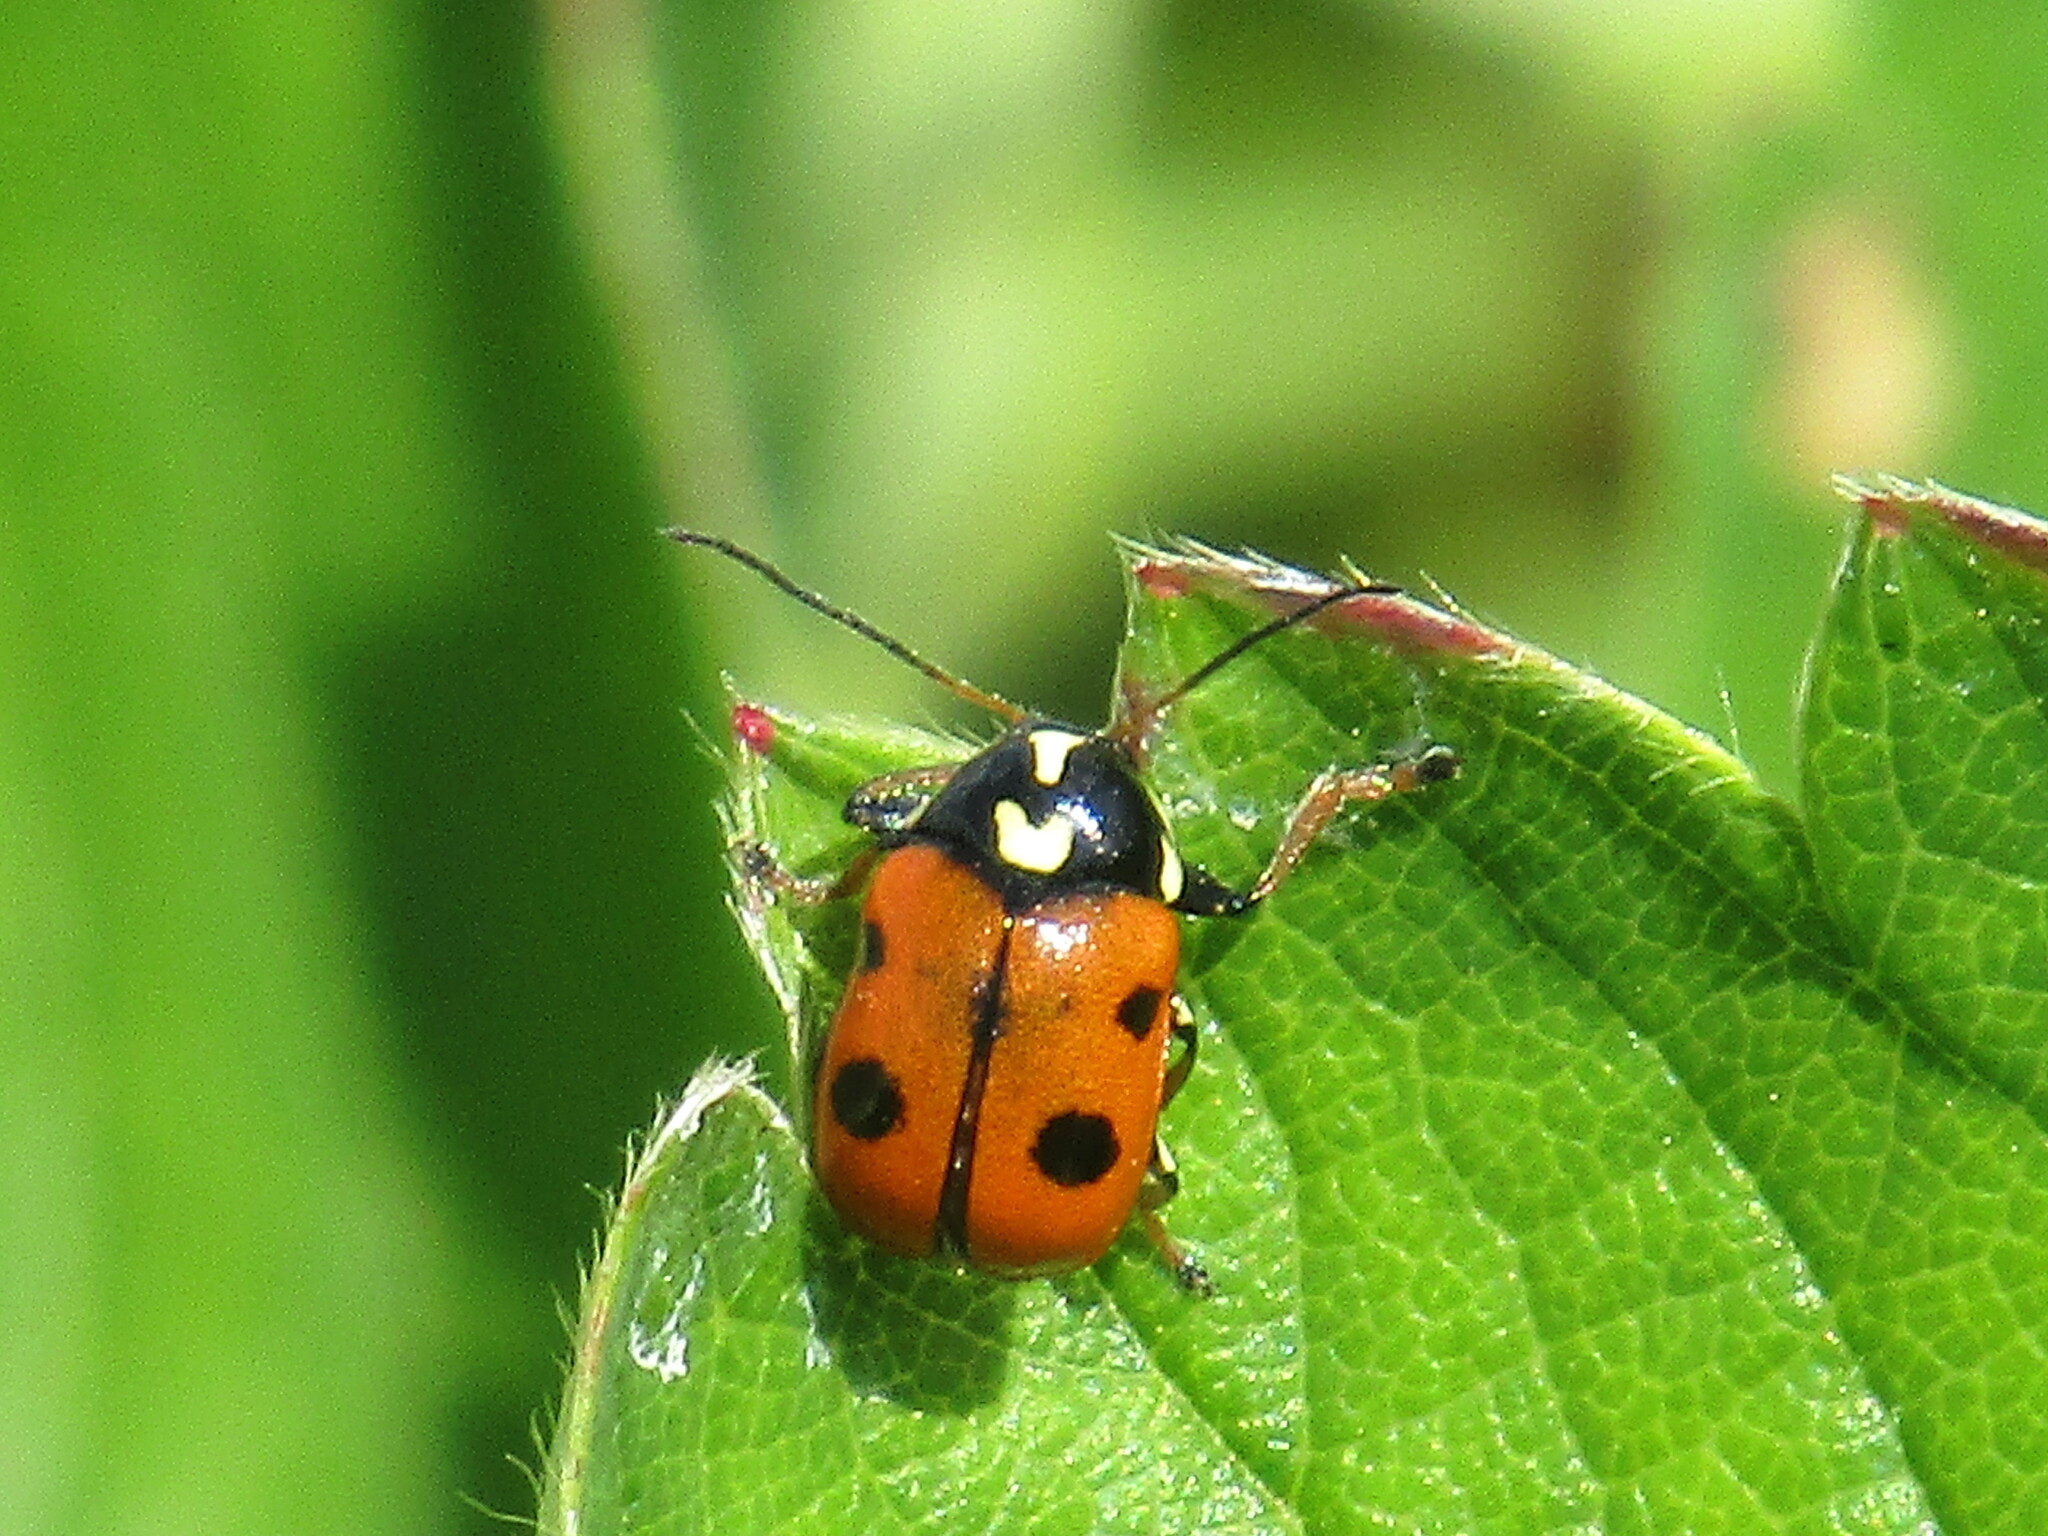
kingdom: Animalia
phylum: Arthropoda
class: Insecta
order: Coleoptera
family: Chrysomelidae
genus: Cryptocephalus
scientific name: Cryptocephalus octopunctatus
